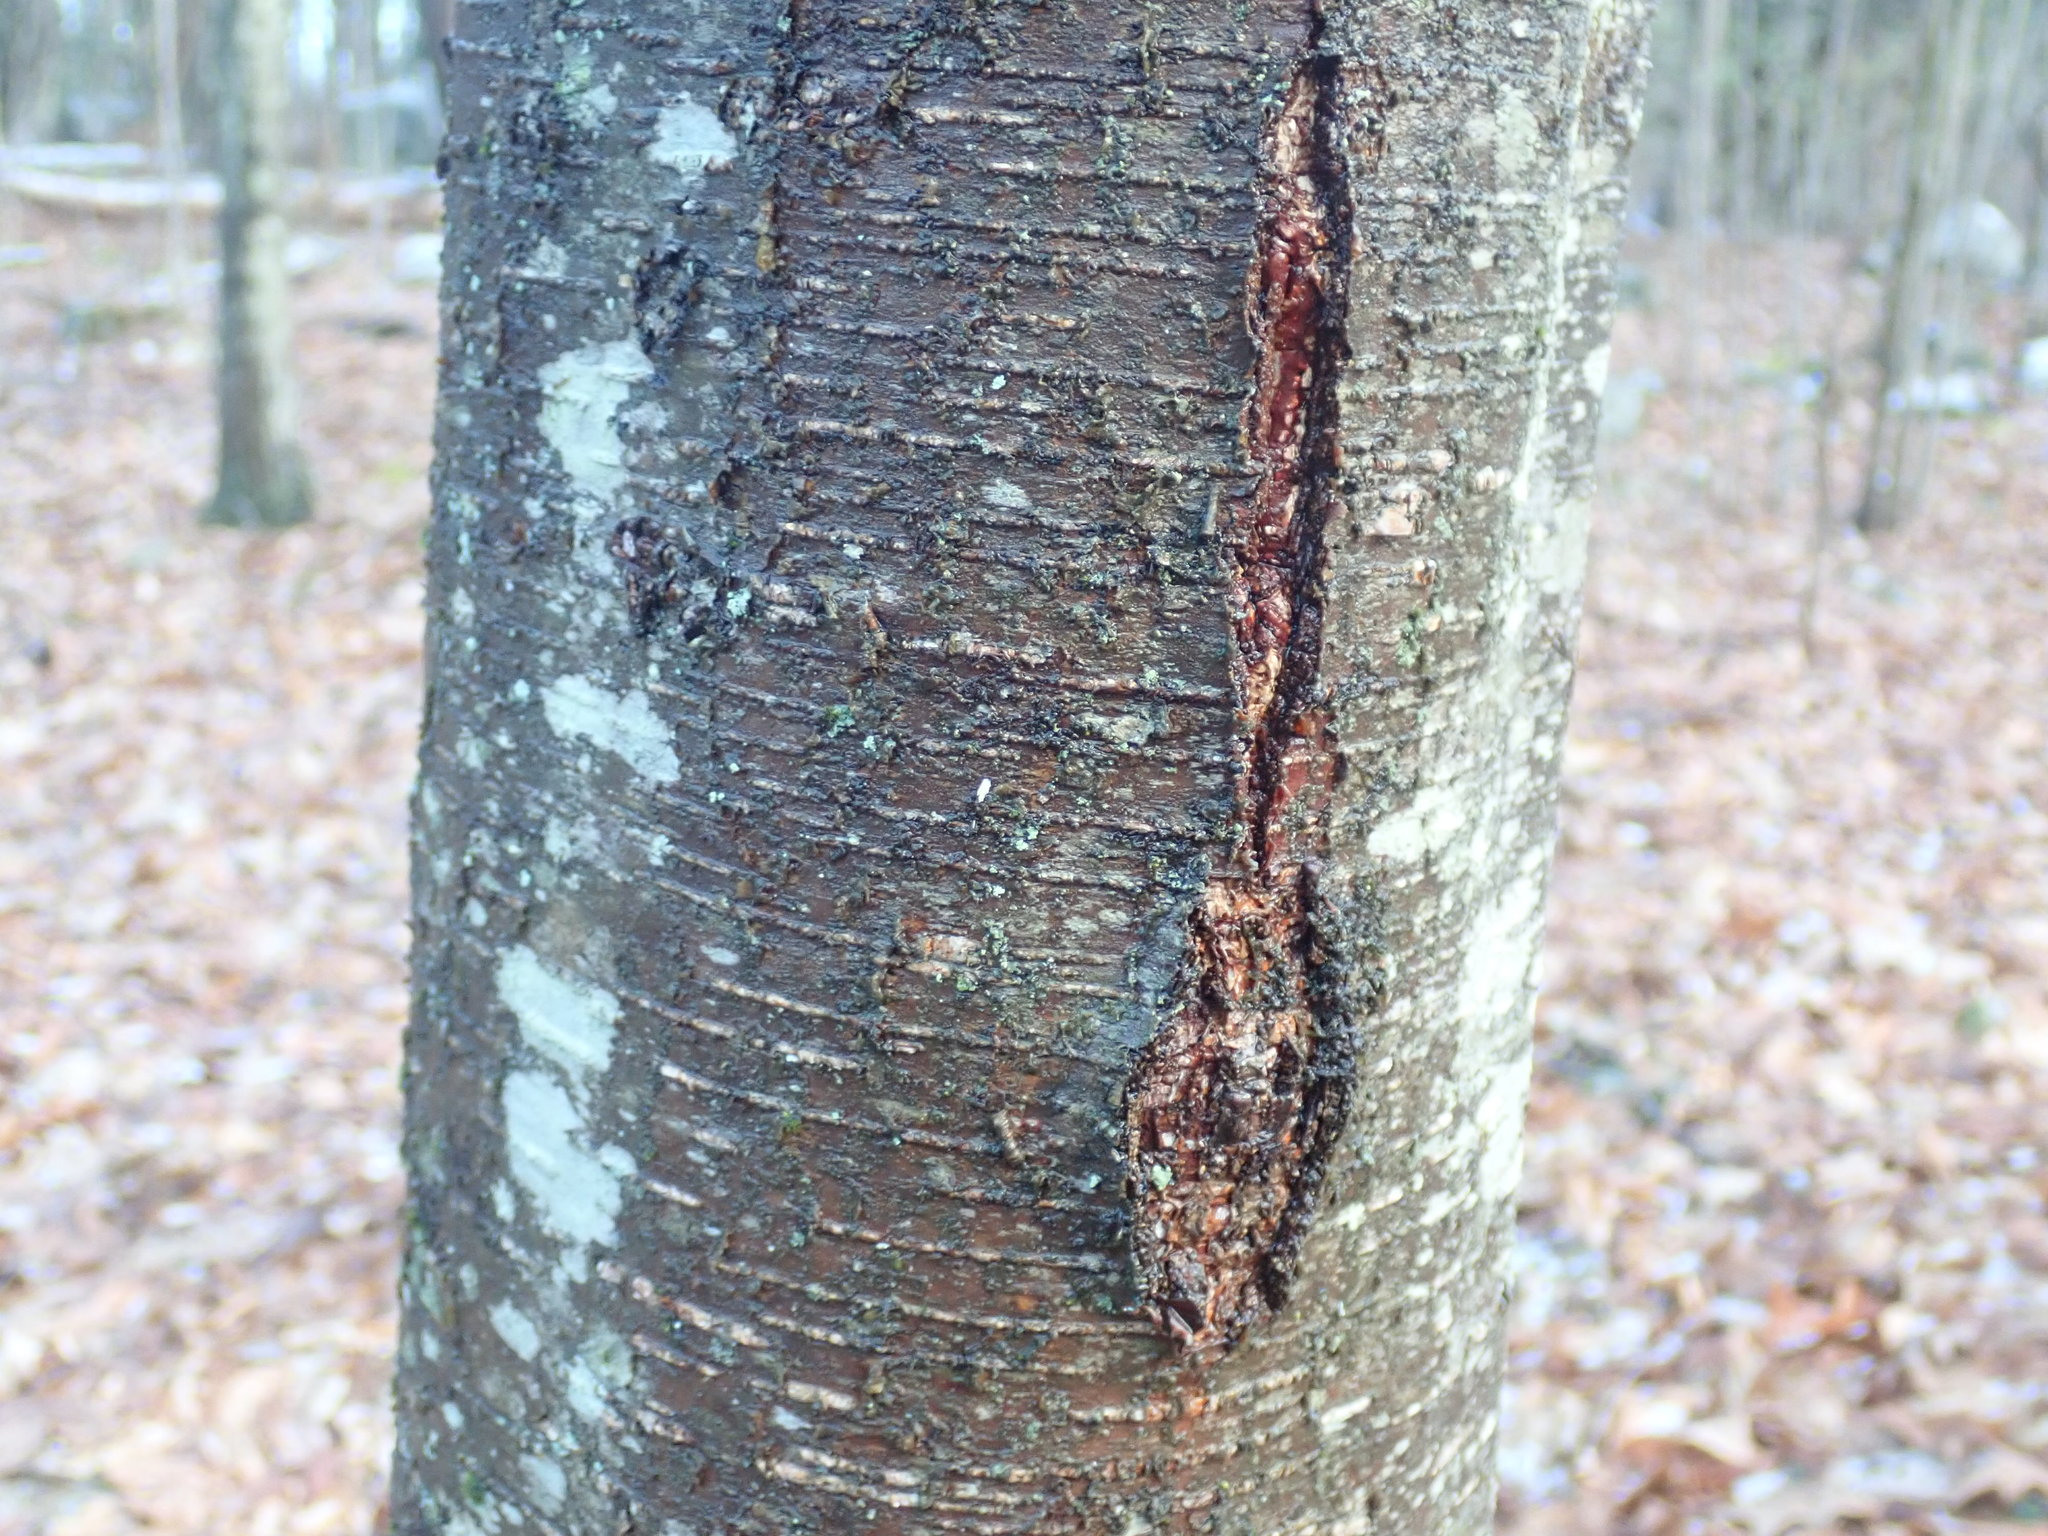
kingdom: Plantae
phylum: Tracheophyta
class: Magnoliopsida
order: Fagales
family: Betulaceae
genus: Betula
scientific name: Betula lenta
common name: Black birch
